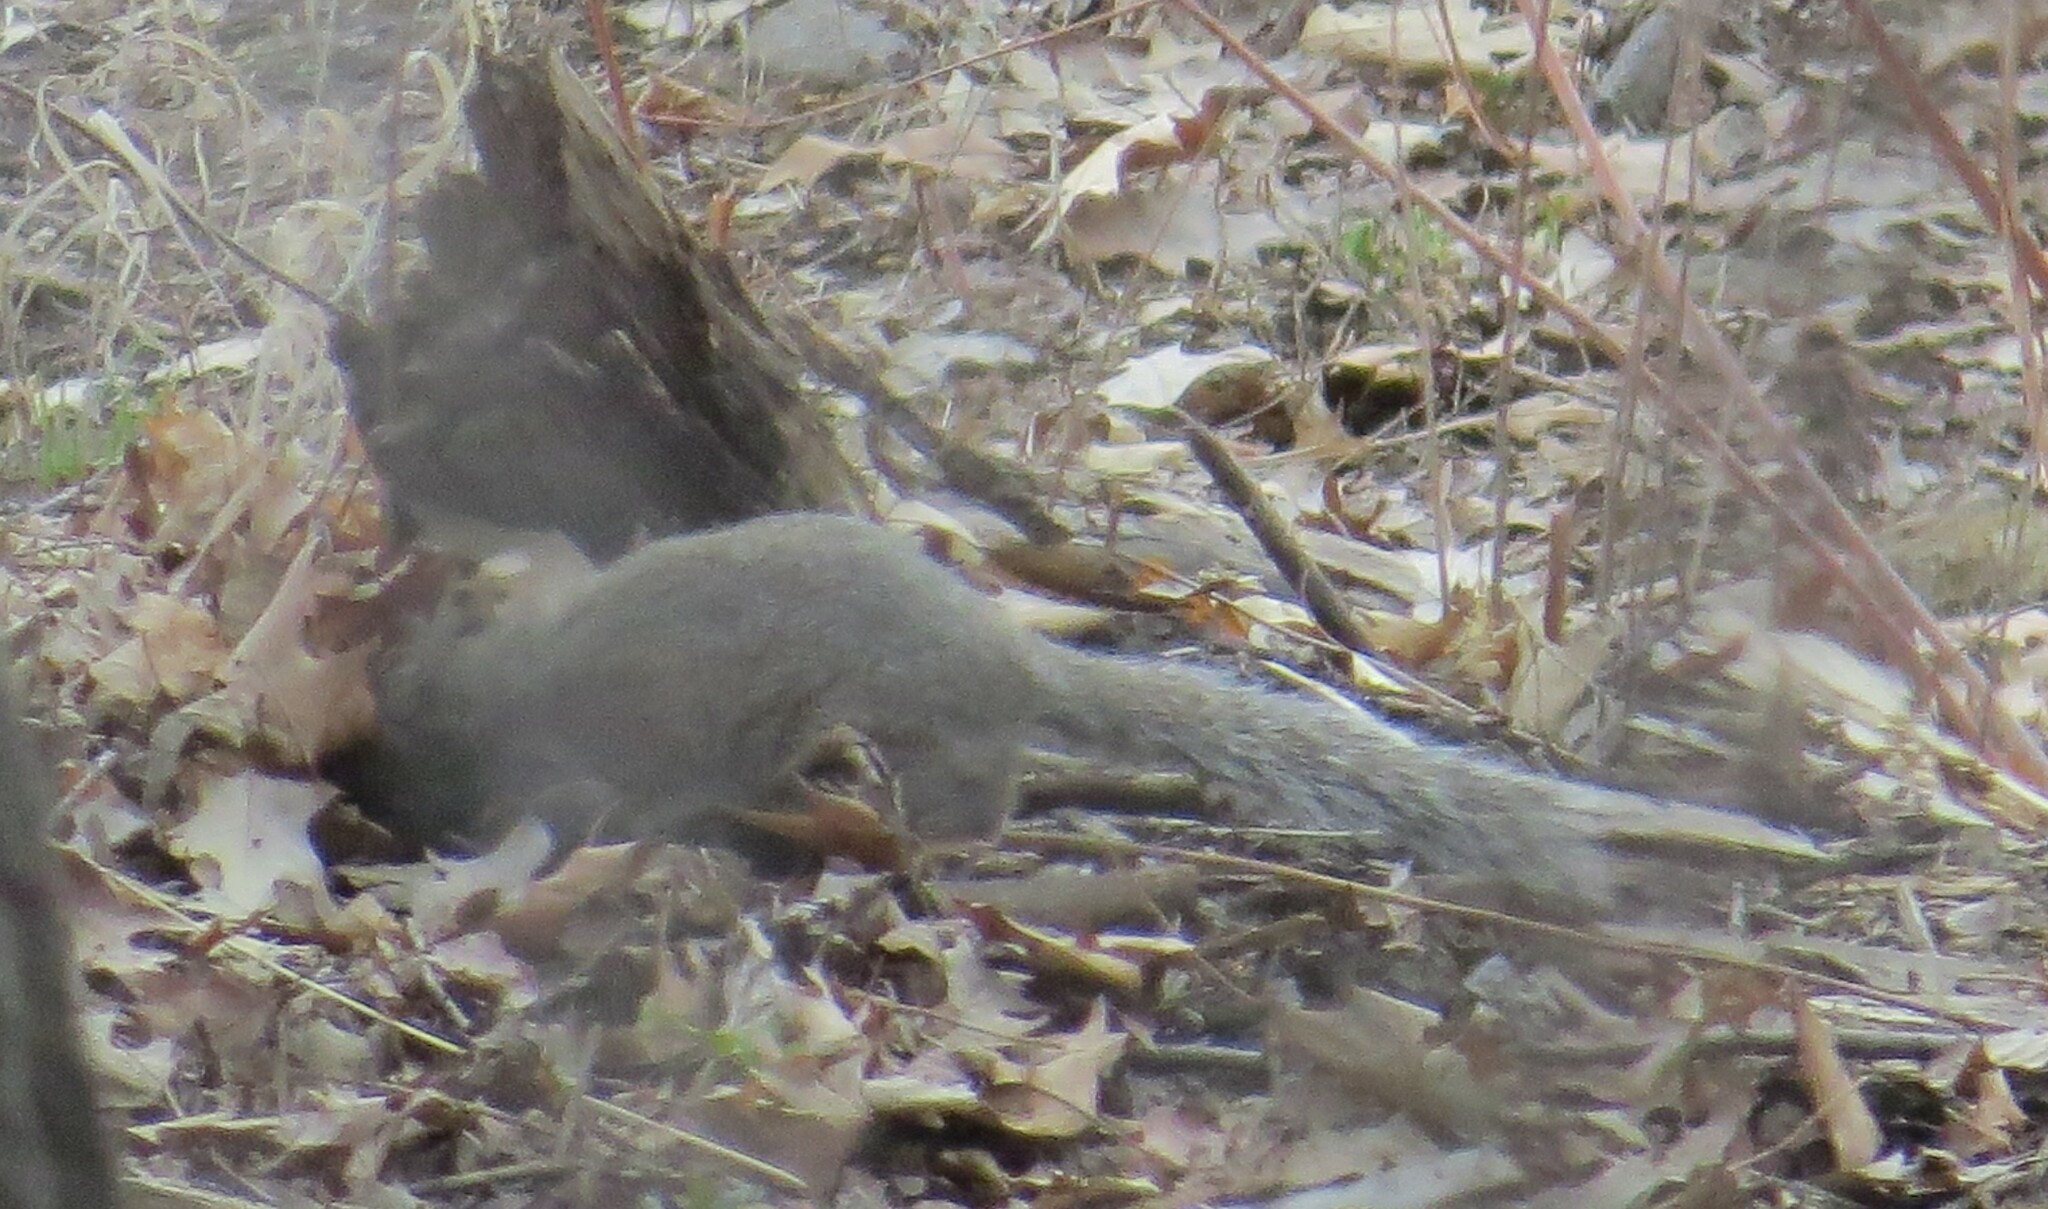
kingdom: Animalia
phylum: Chordata
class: Mammalia
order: Rodentia
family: Sciuridae
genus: Sciurus
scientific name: Sciurus carolinensis
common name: Eastern gray squirrel
